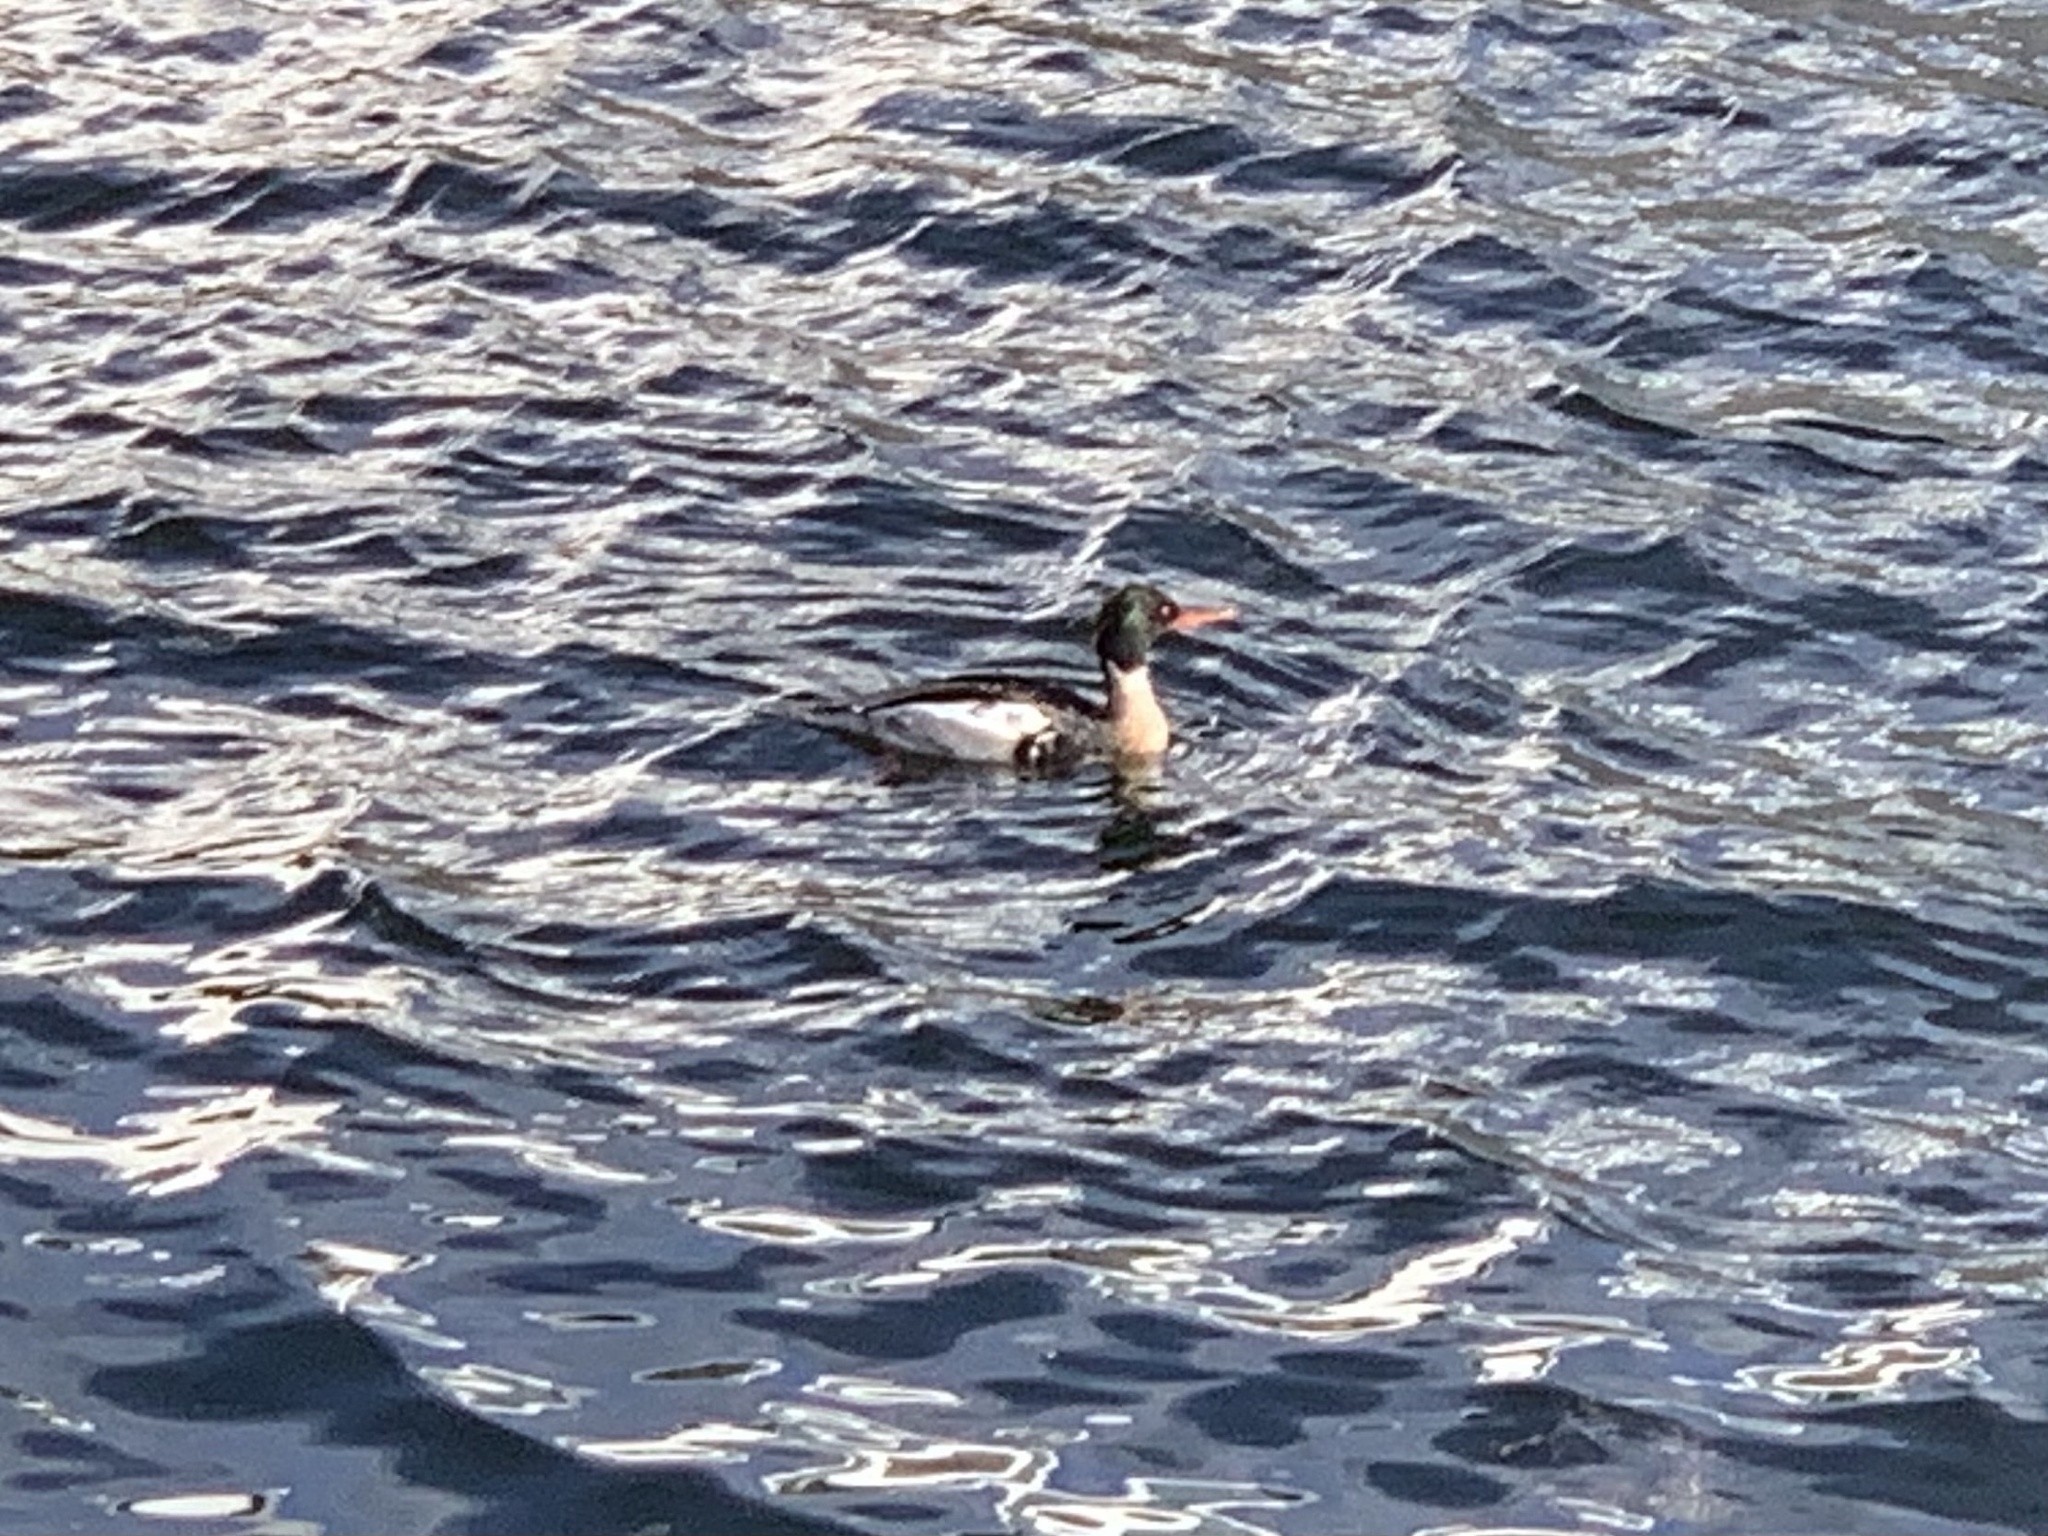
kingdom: Animalia
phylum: Chordata
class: Aves
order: Anseriformes
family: Anatidae
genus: Mergus
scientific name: Mergus serrator
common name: Red-breasted merganser
